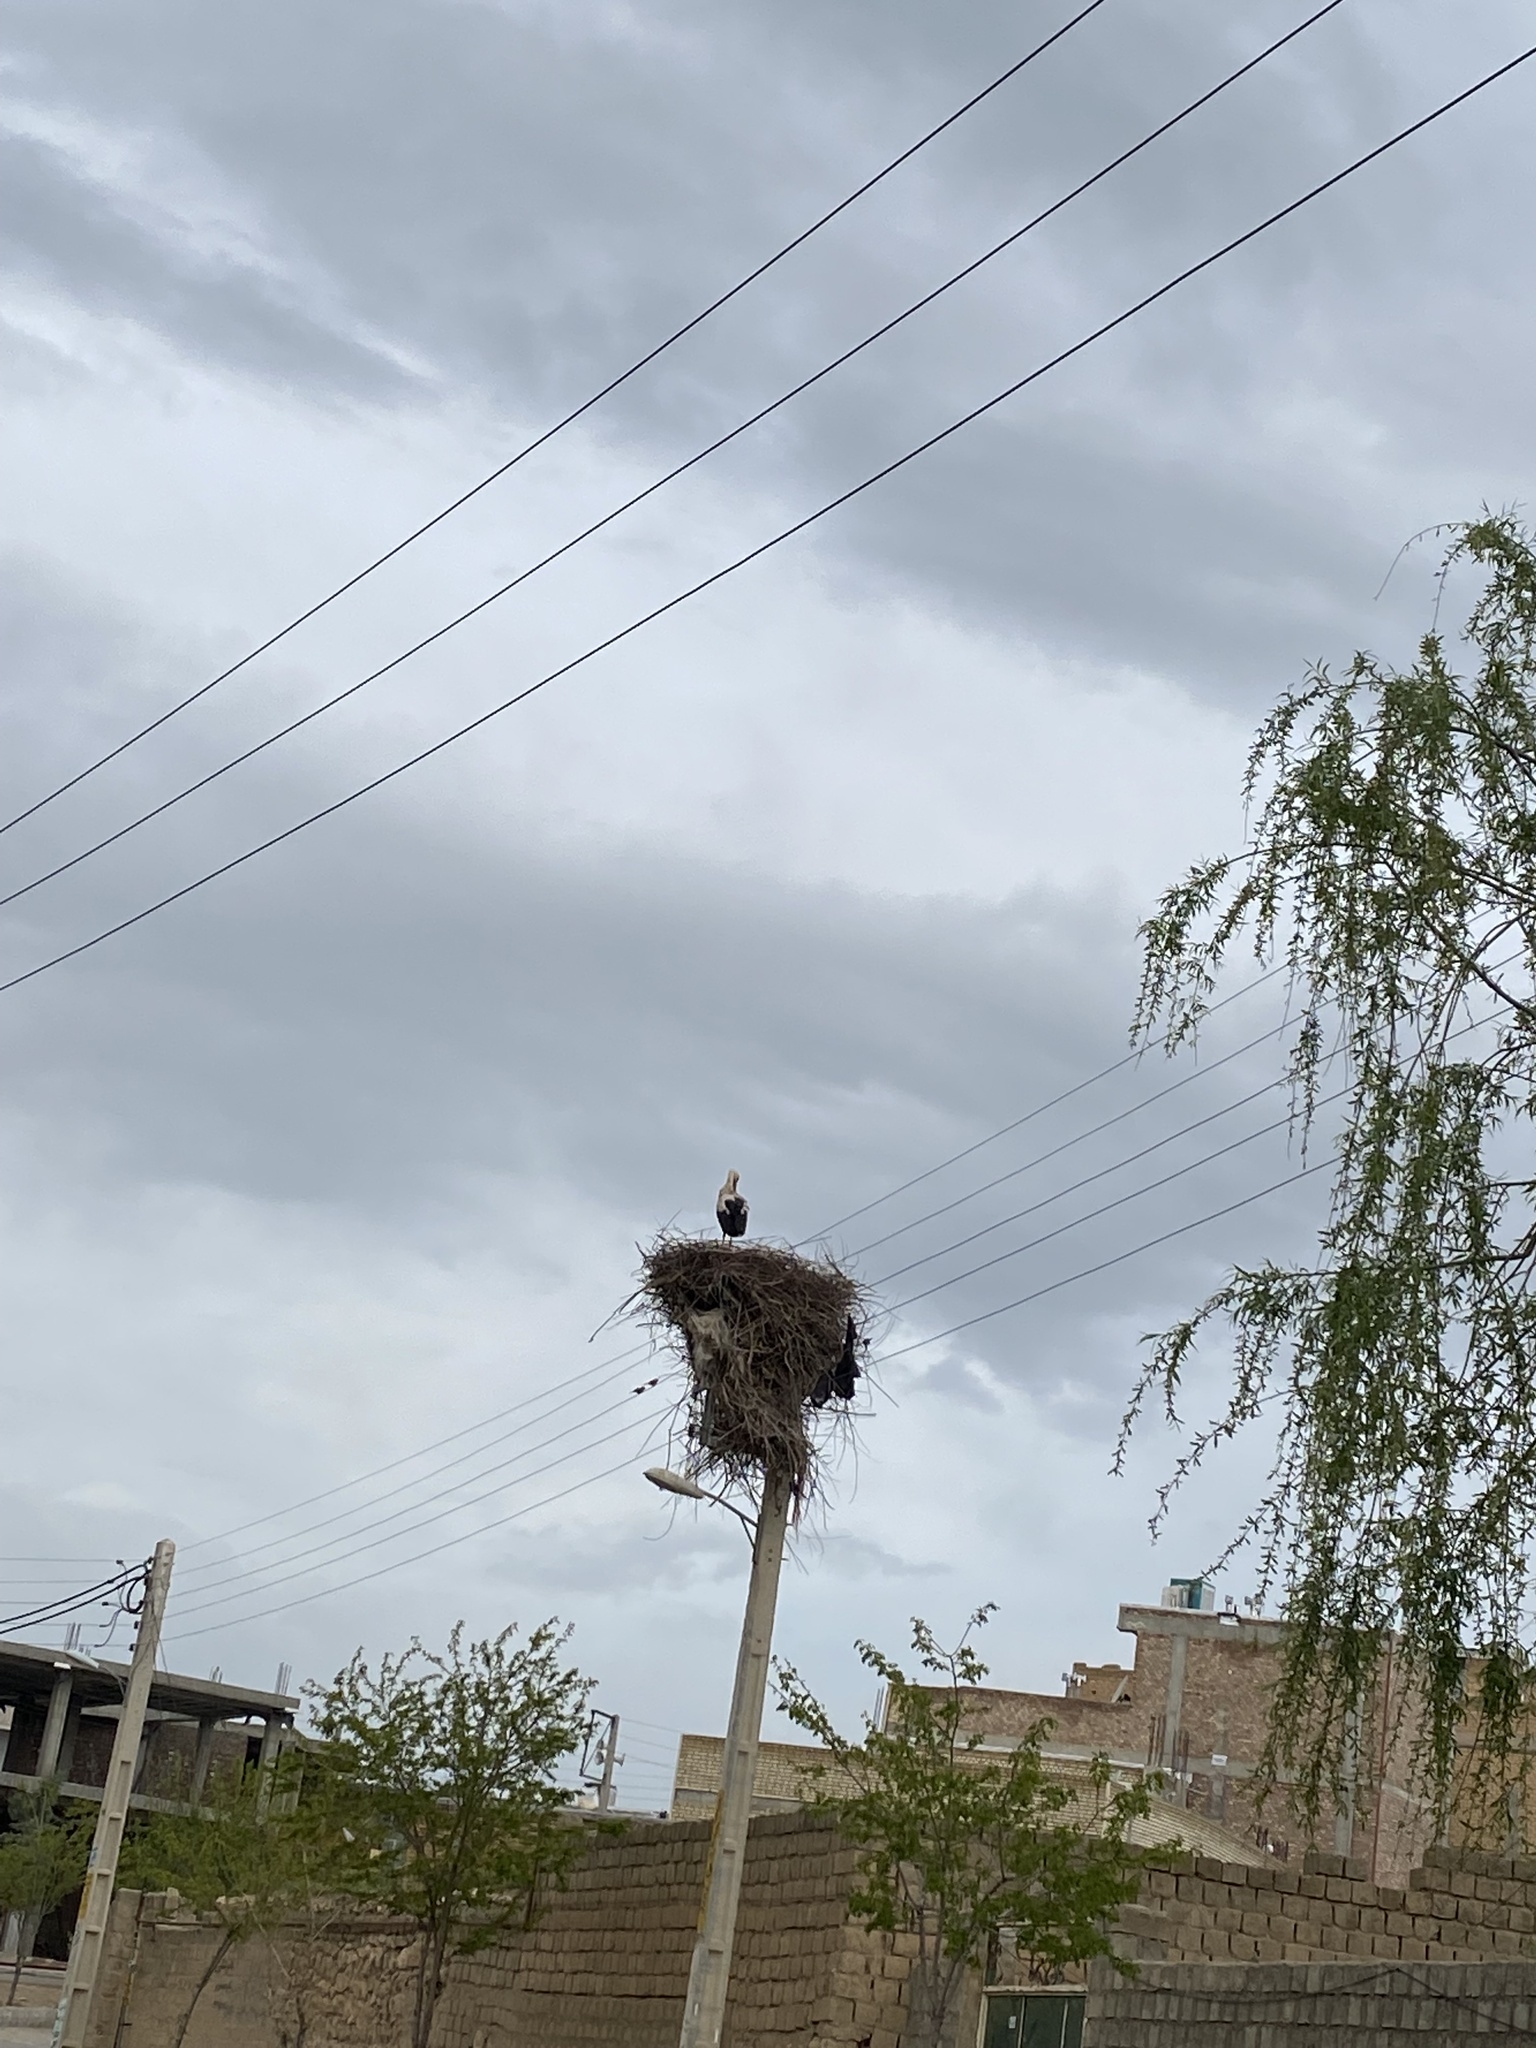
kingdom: Animalia
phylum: Chordata
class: Aves
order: Ciconiiformes
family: Ciconiidae
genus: Ciconia
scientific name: Ciconia ciconia
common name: White stork
